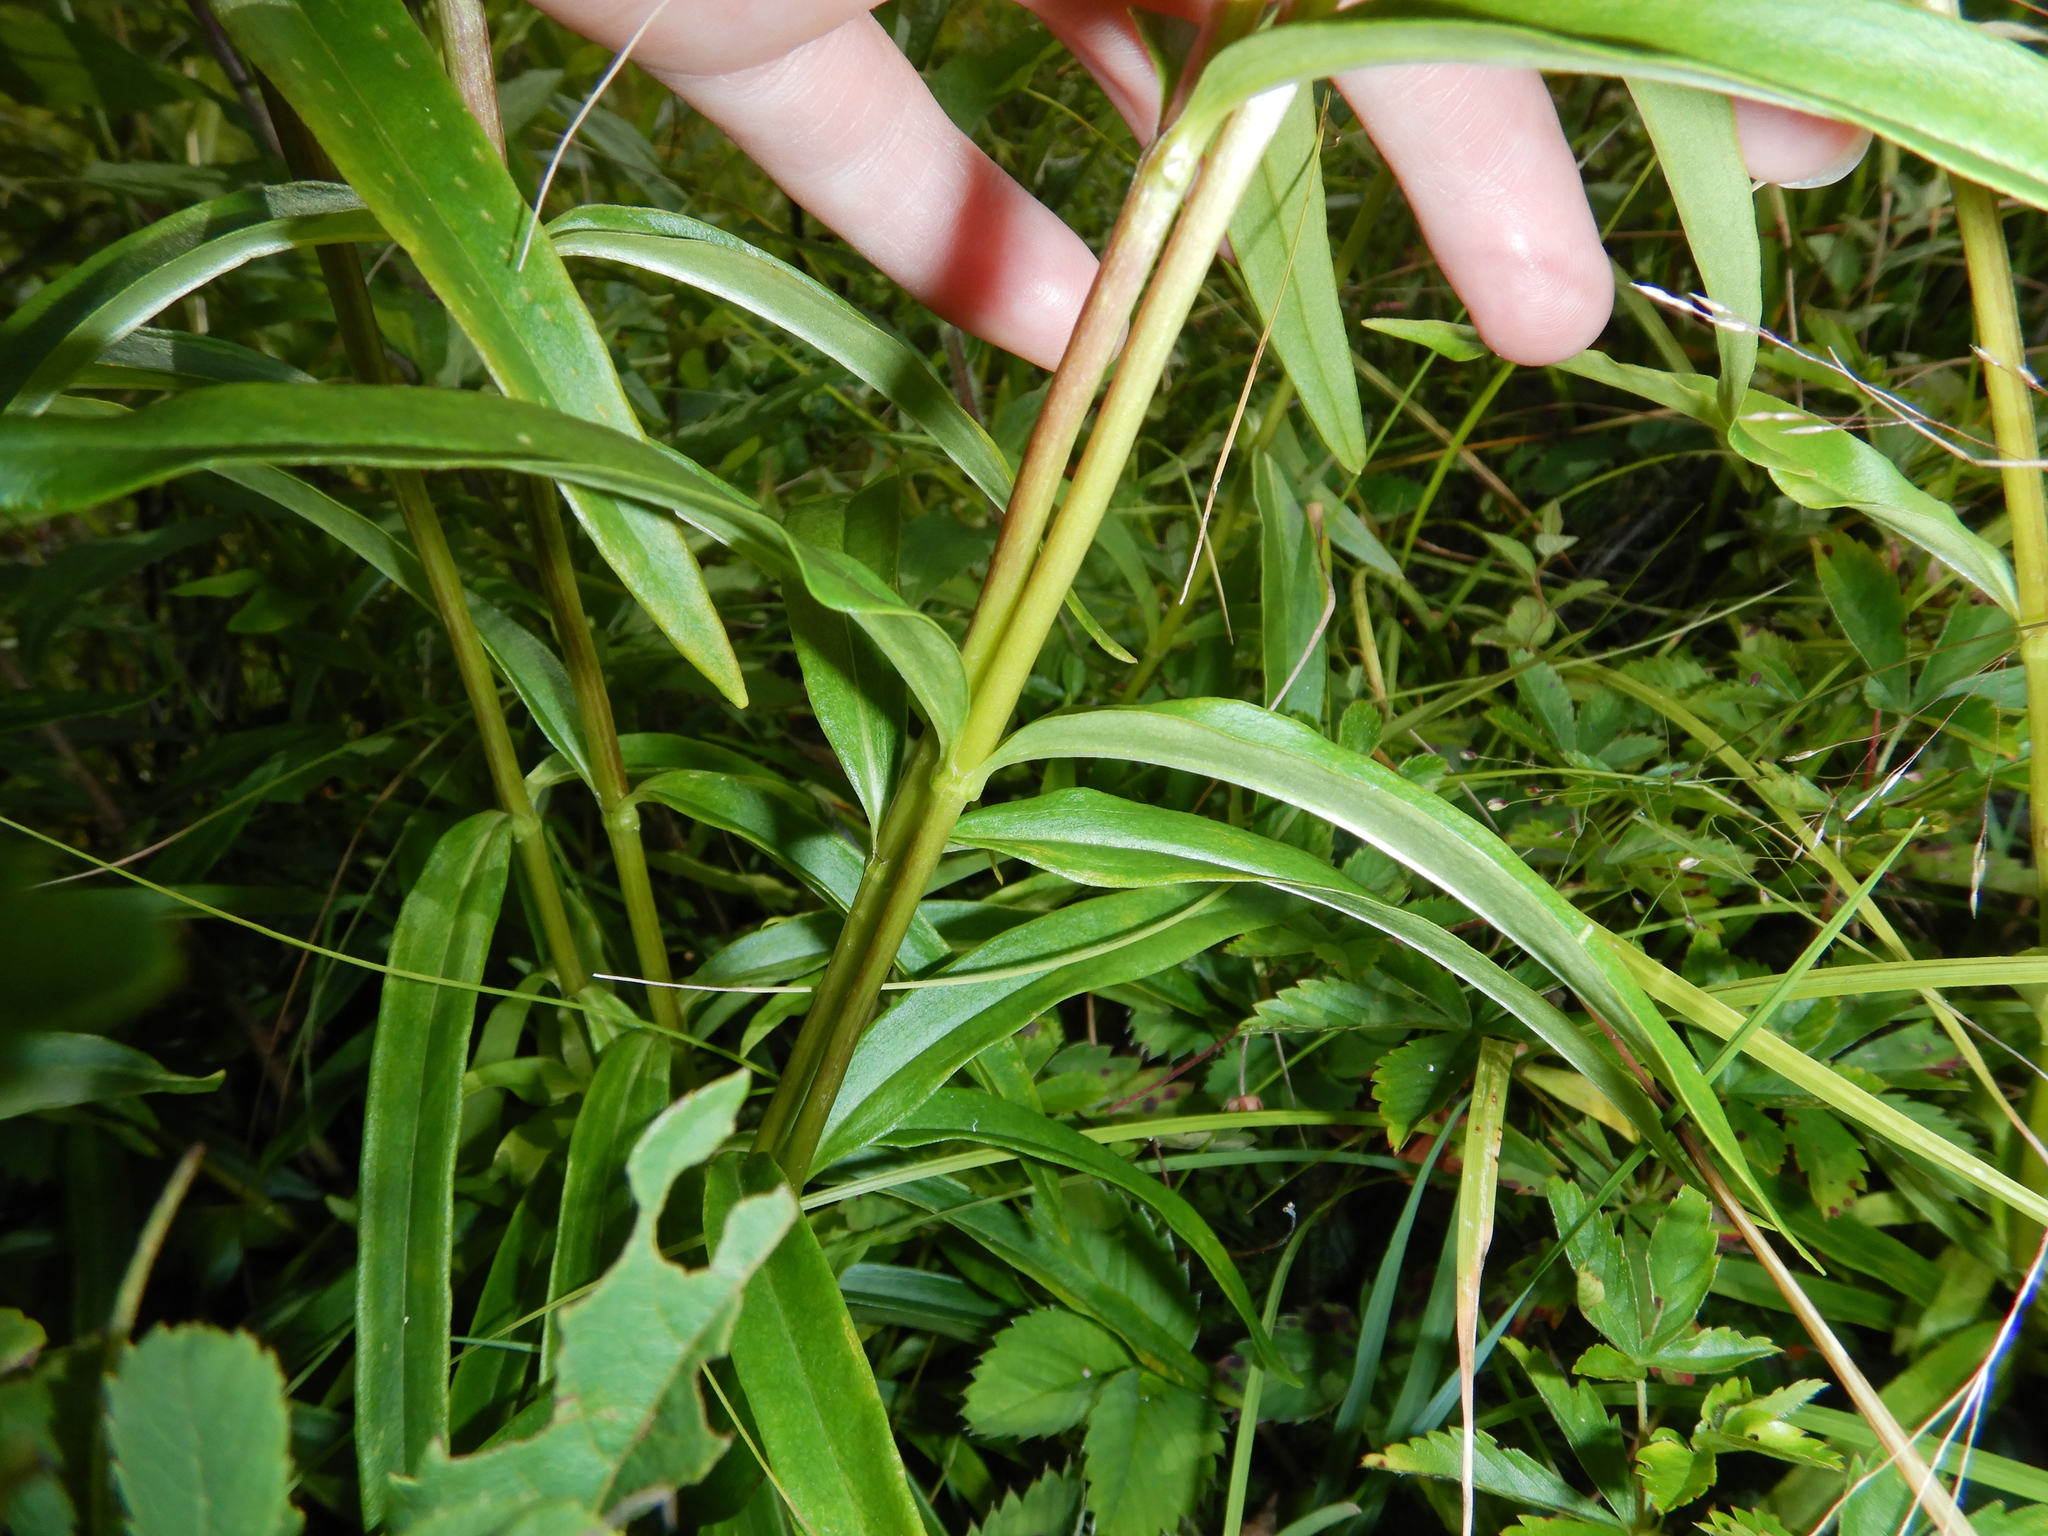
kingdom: Plantae
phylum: Tracheophyta
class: Magnoliopsida
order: Gentianales
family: Gentianaceae
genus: Gentiana
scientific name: Gentiana linearis
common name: Bastard gentian
